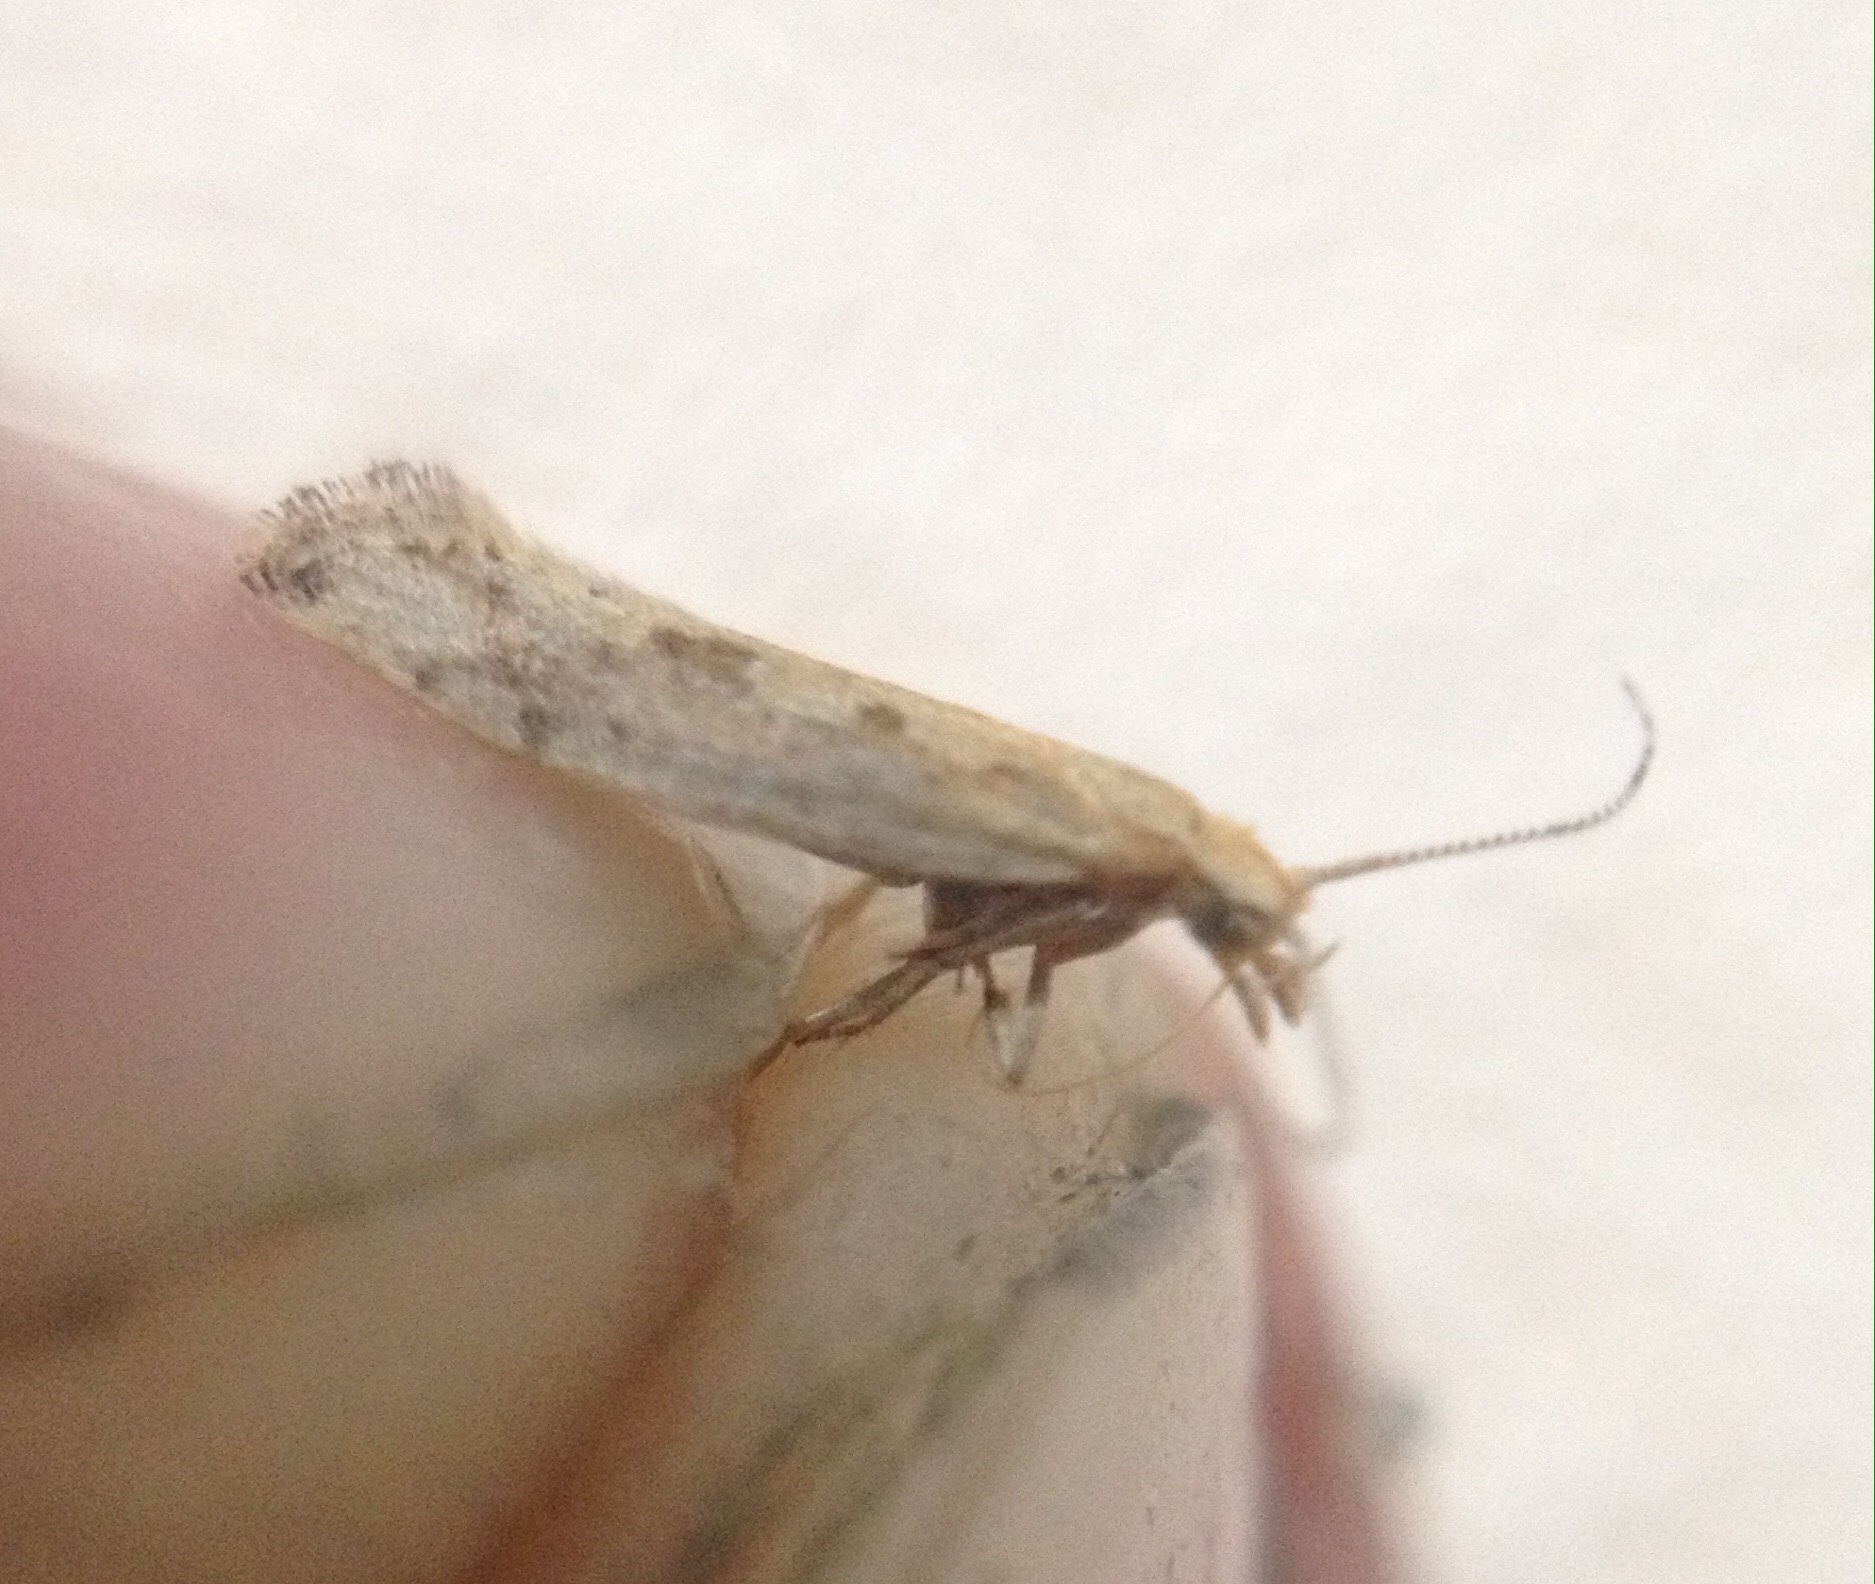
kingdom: Animalia
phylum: Arthropoda
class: Insecta
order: Lepidoptera
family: Plutellidae
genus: Plutella
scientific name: Plutella xylostella
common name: Diamond-back moth
